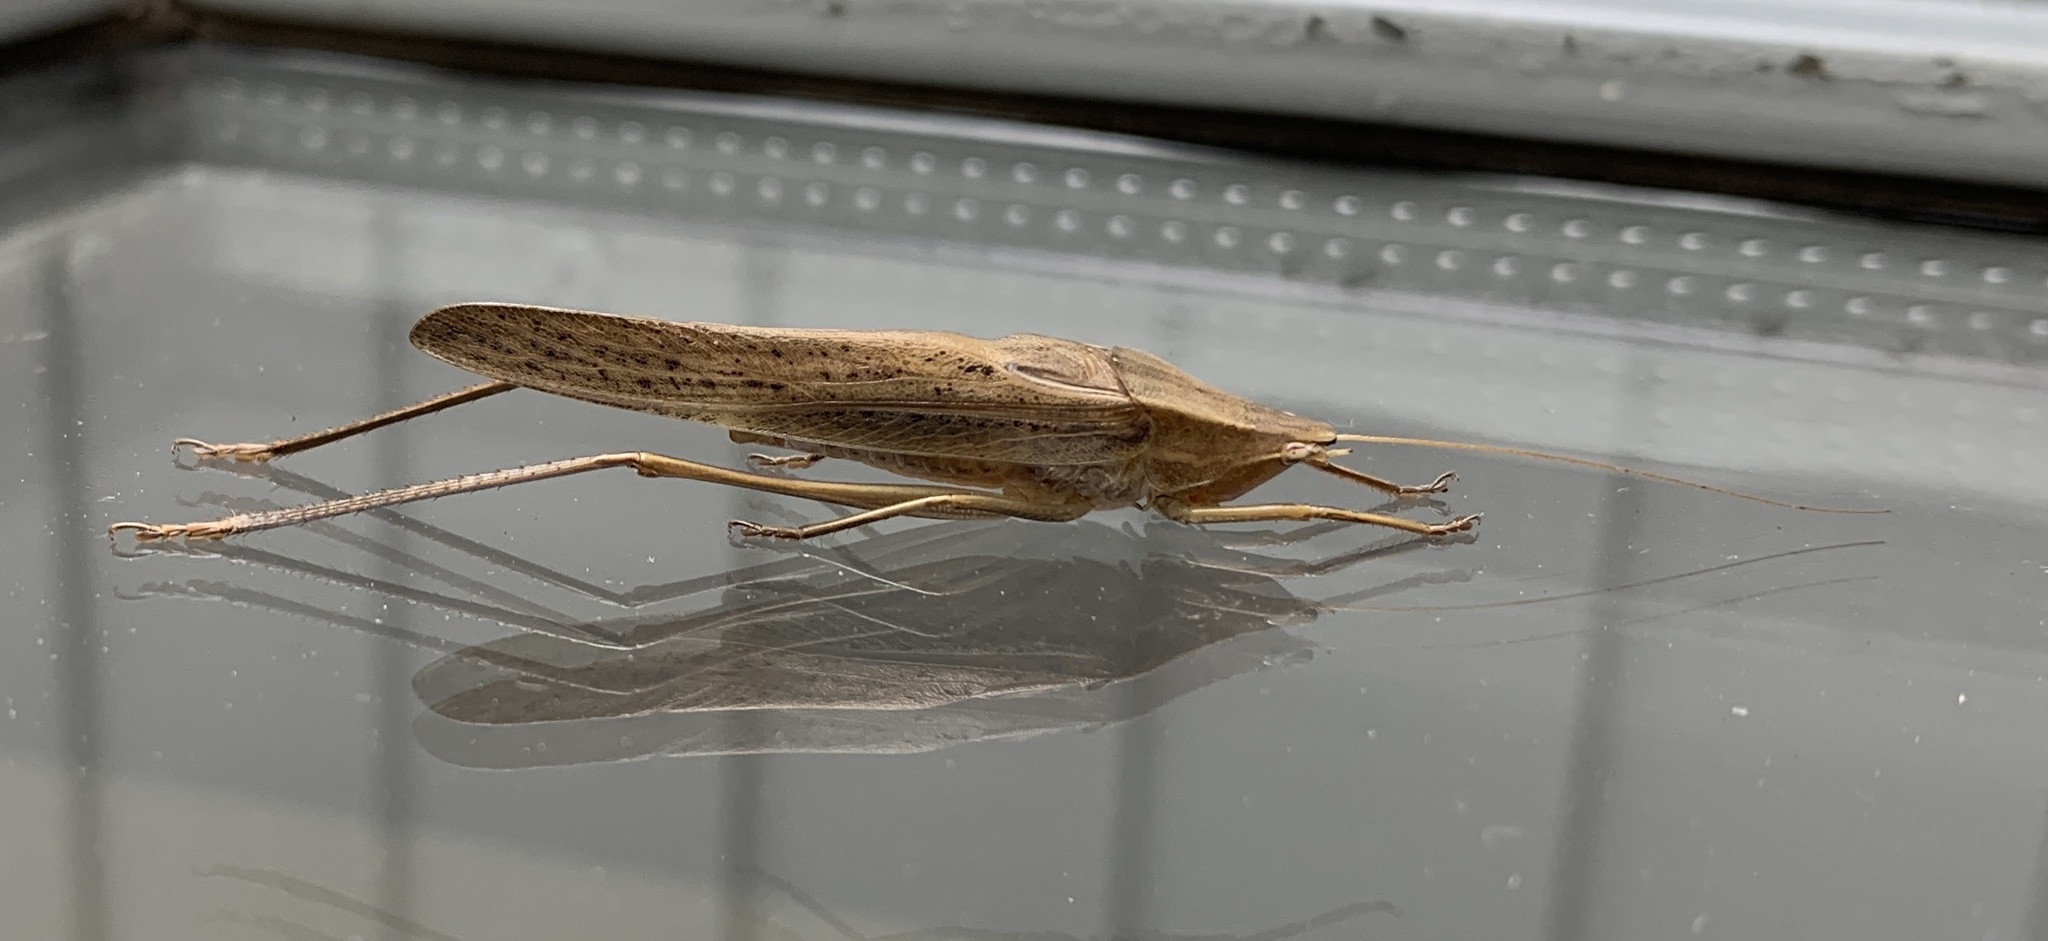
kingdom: Animalia
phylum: Arthropoda
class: Insecta
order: Orthoptera
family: Tettigoniidae
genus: Neoconocephalus
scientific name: Neoconocephalus retusus
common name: Round-tipped conehead
